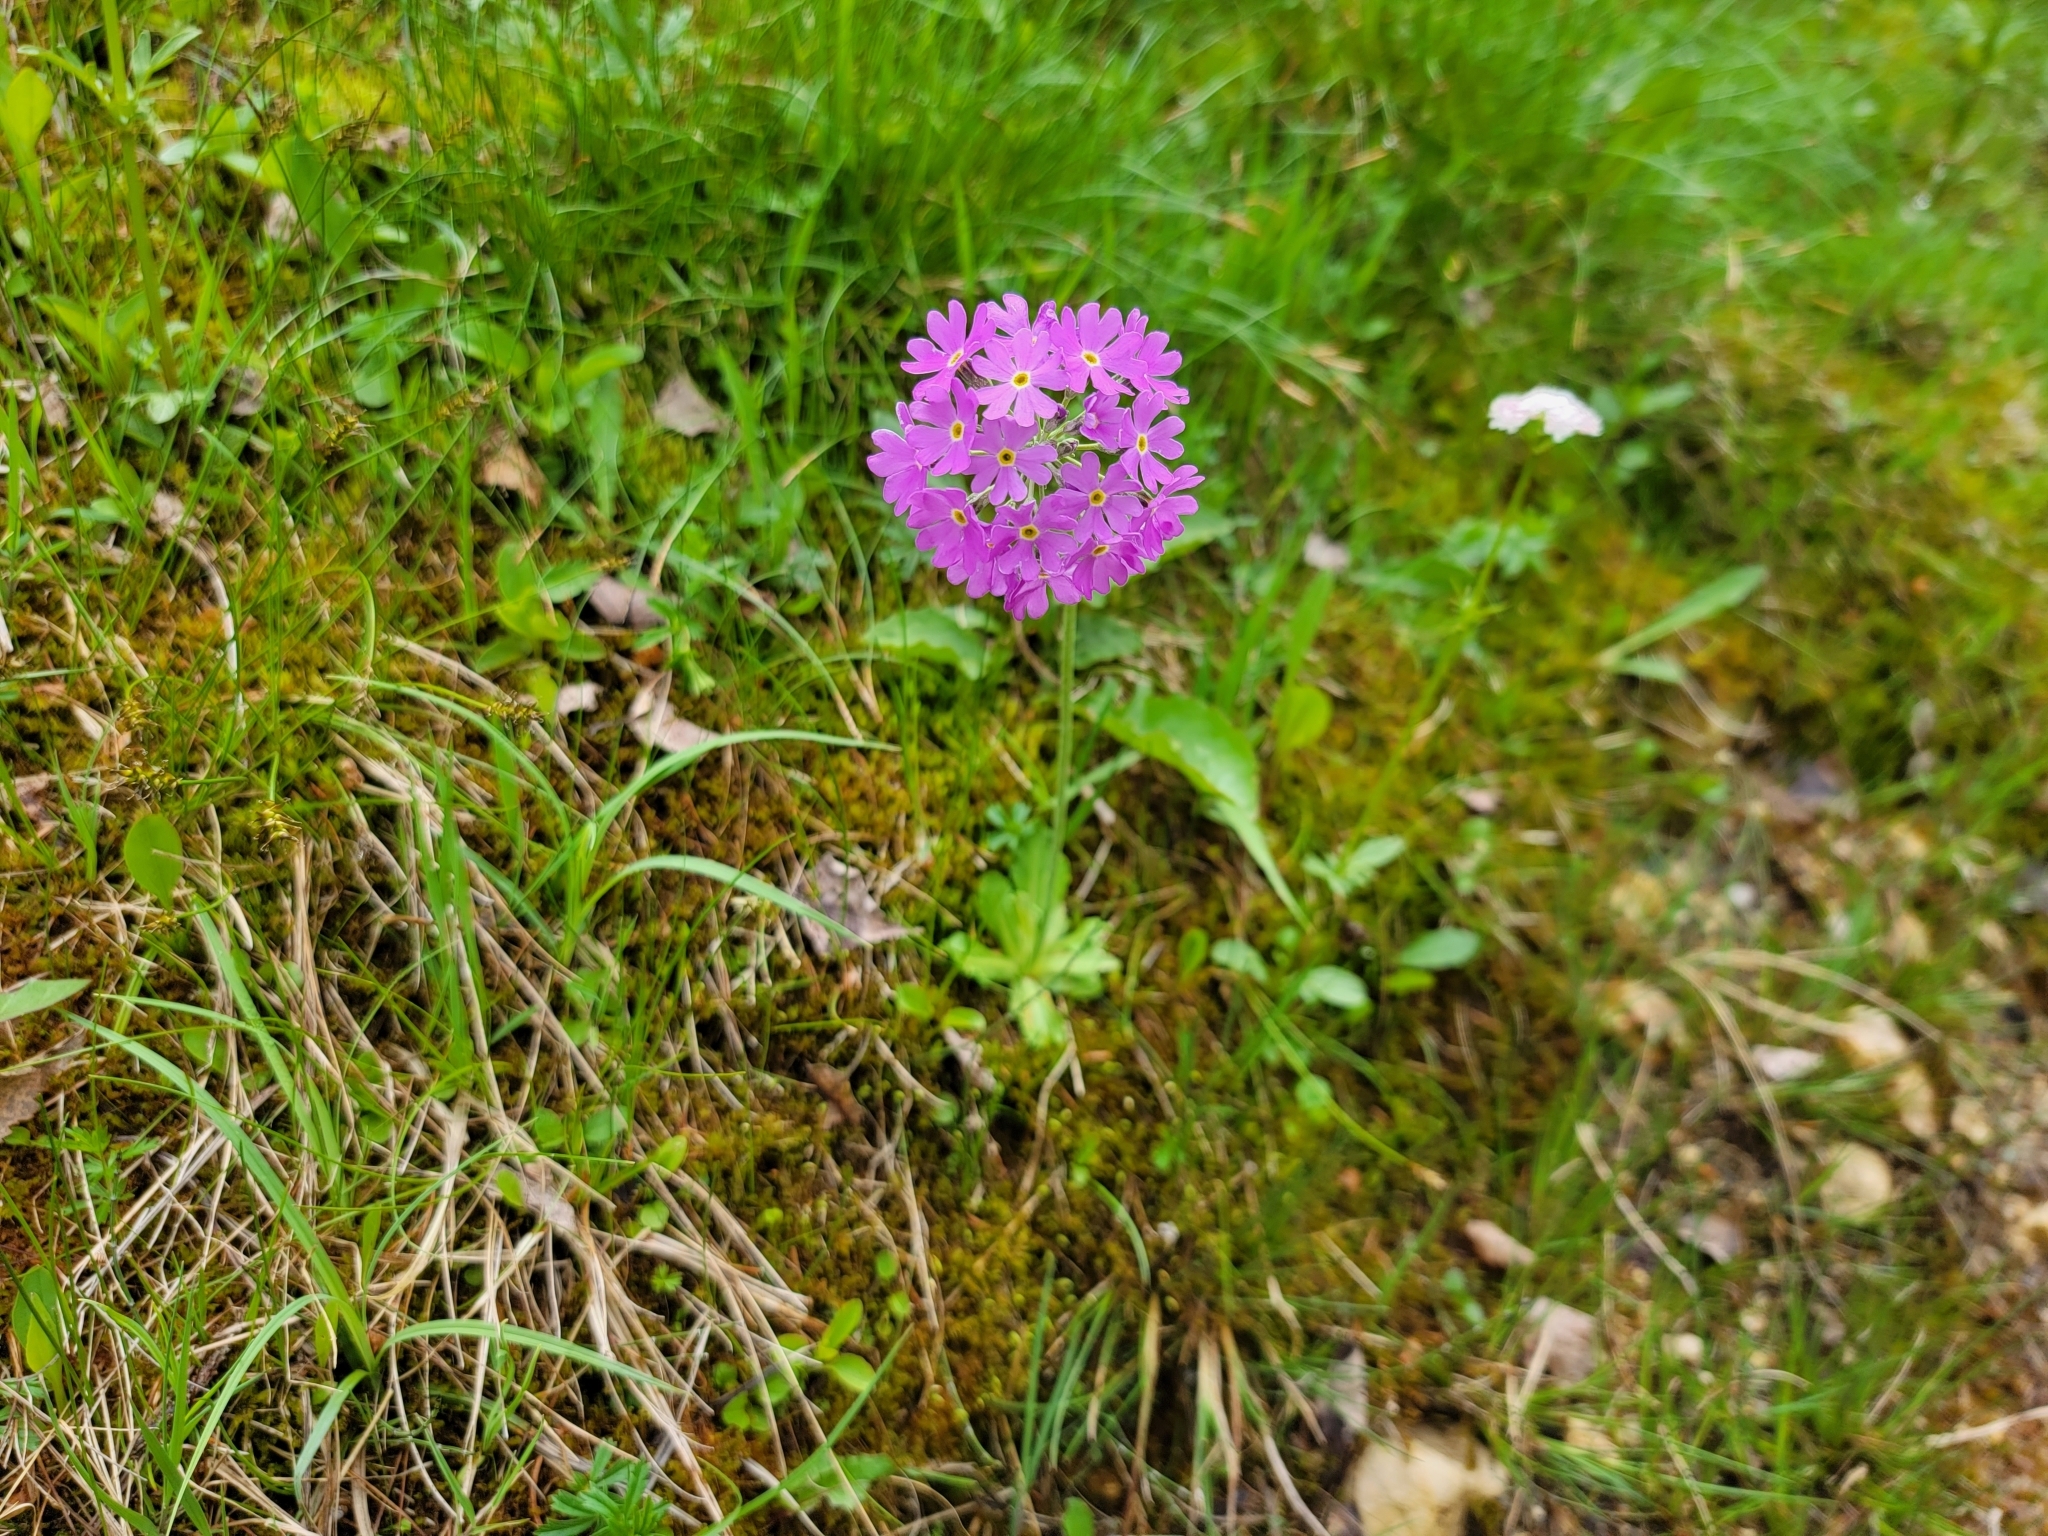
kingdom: Plantae
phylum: Tracheophyta
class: Magnoliopsida
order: Ericales
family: Primulaceae
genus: Primula
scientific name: Primula farinosa
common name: Bird's-eye primrose
